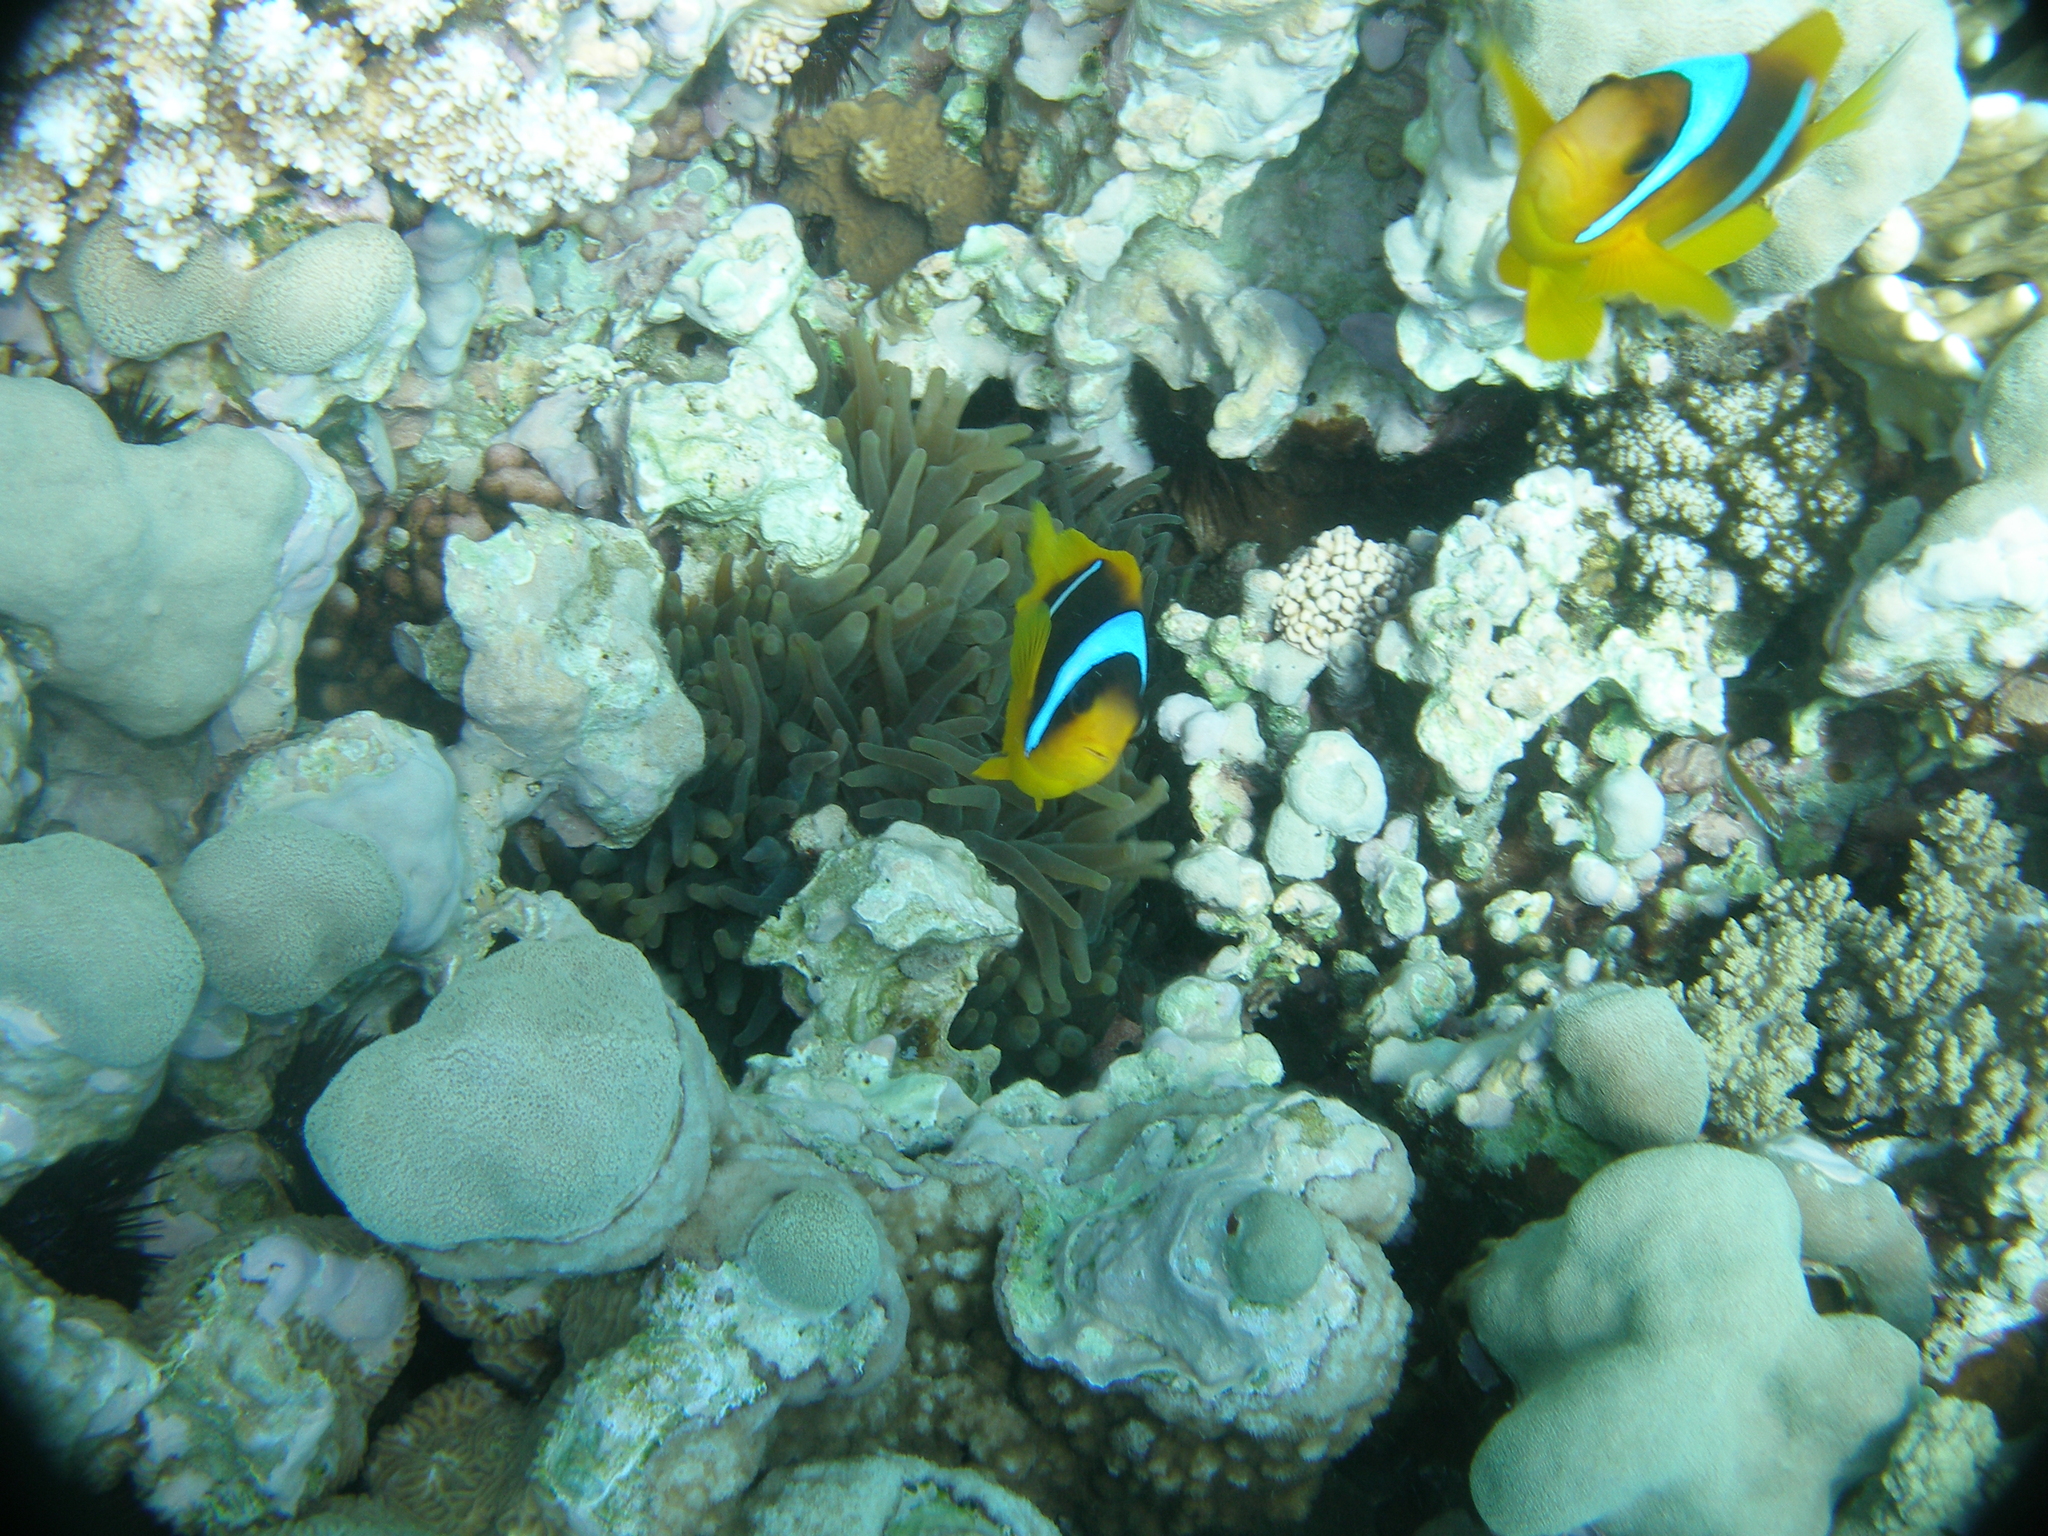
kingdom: Animalia
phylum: Chordata
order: Perciformes
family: Pomacentridae
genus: Amphiprion
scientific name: Amphiprion bicinctus
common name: Two-banded anemonefish
